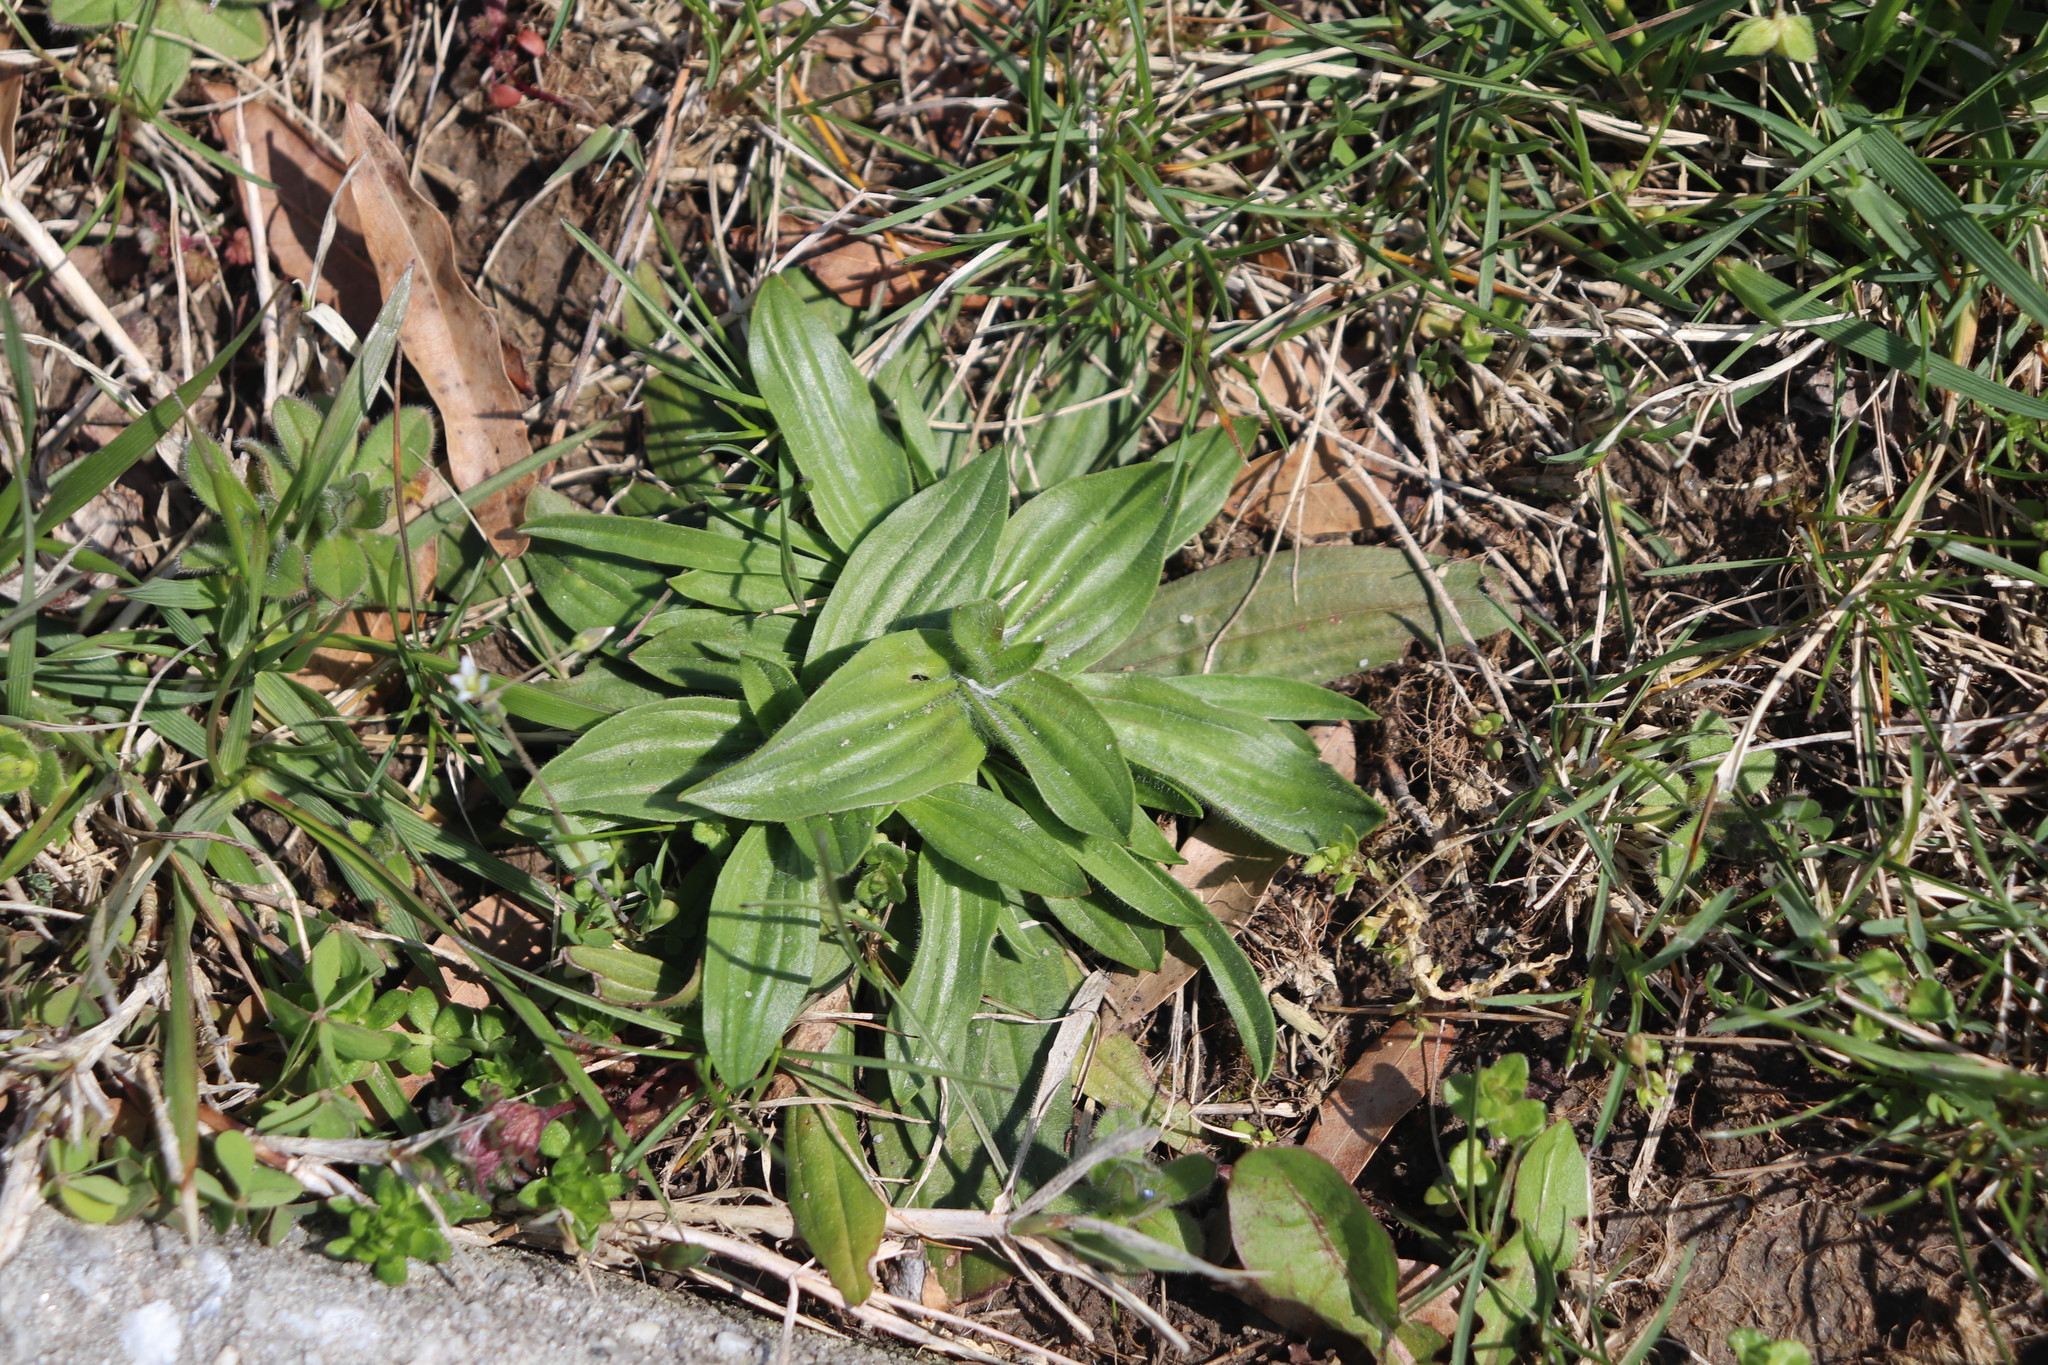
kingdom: Plantae
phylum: Tracheophyta
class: Magnoliopsida
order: Lamiales
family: Plantaginaceae
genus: Plantago
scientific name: Plantago lanceolata
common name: Ribwort plantain
